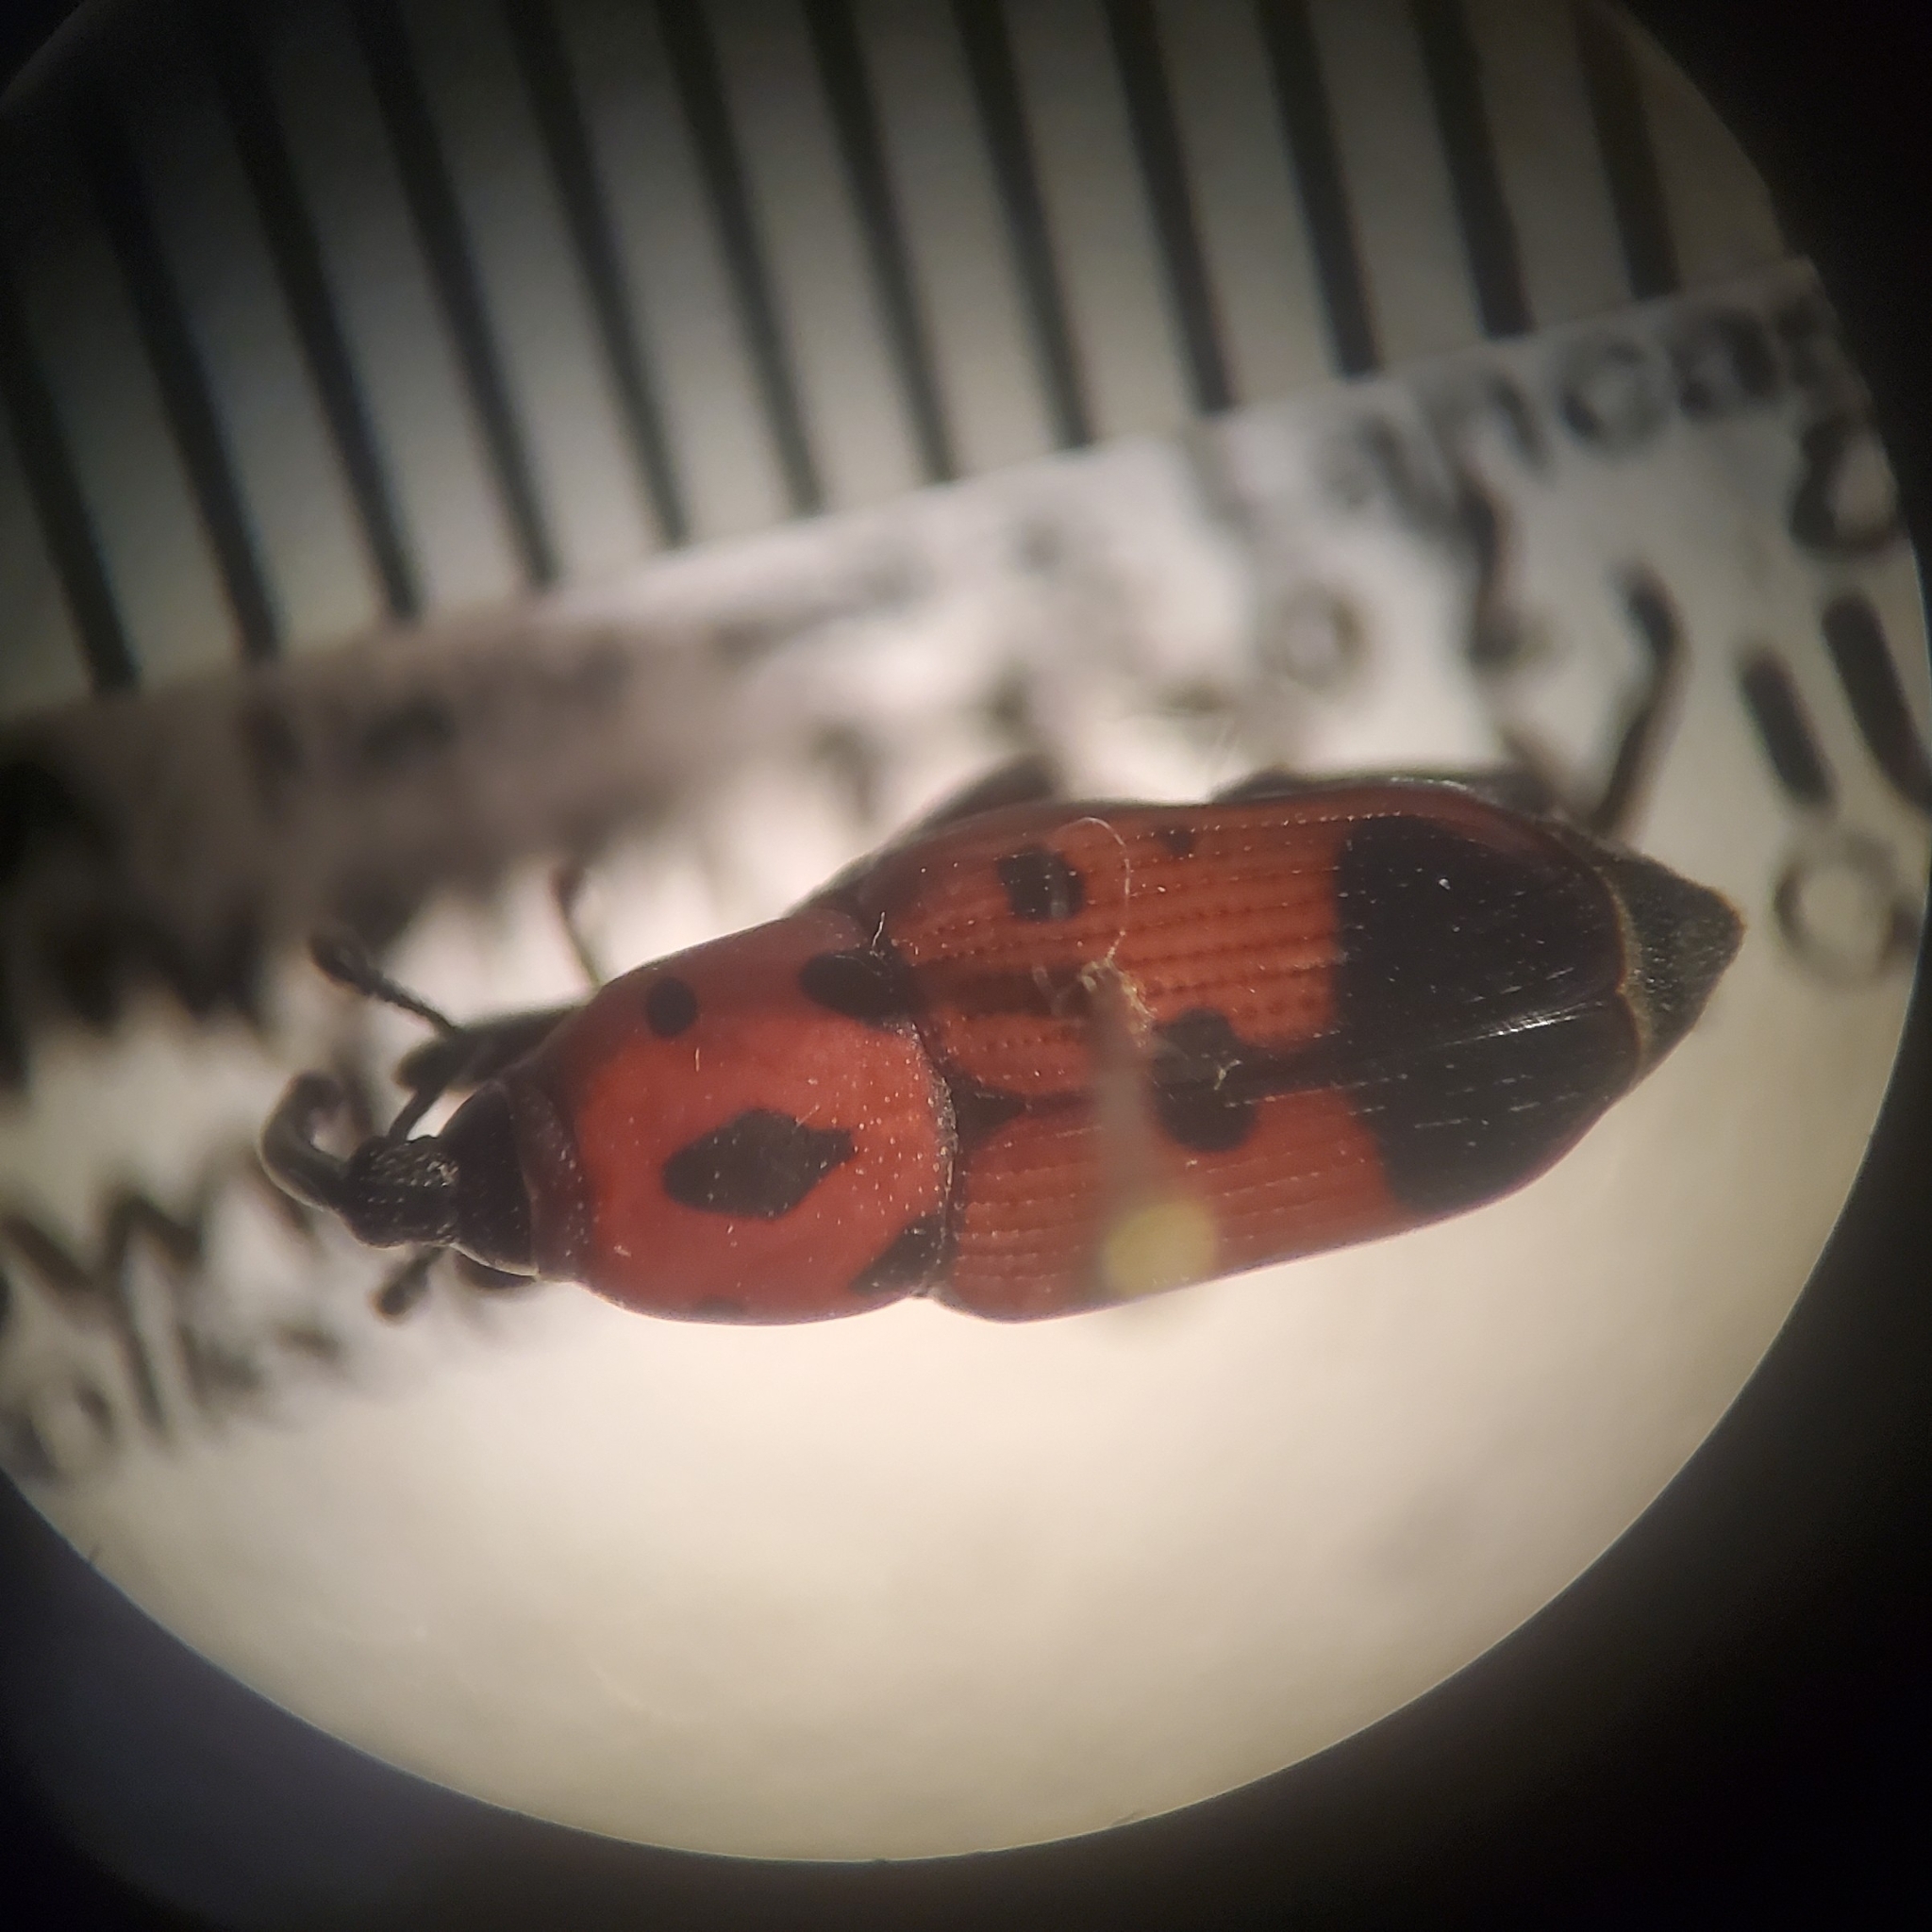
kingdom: Animalia
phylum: Arthropoda
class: Insecta
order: Coleoptera
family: Dryophthoridae
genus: Rhodobaenus
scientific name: Rhodobaenus quinquepunctatus
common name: Cocklebur weevil
